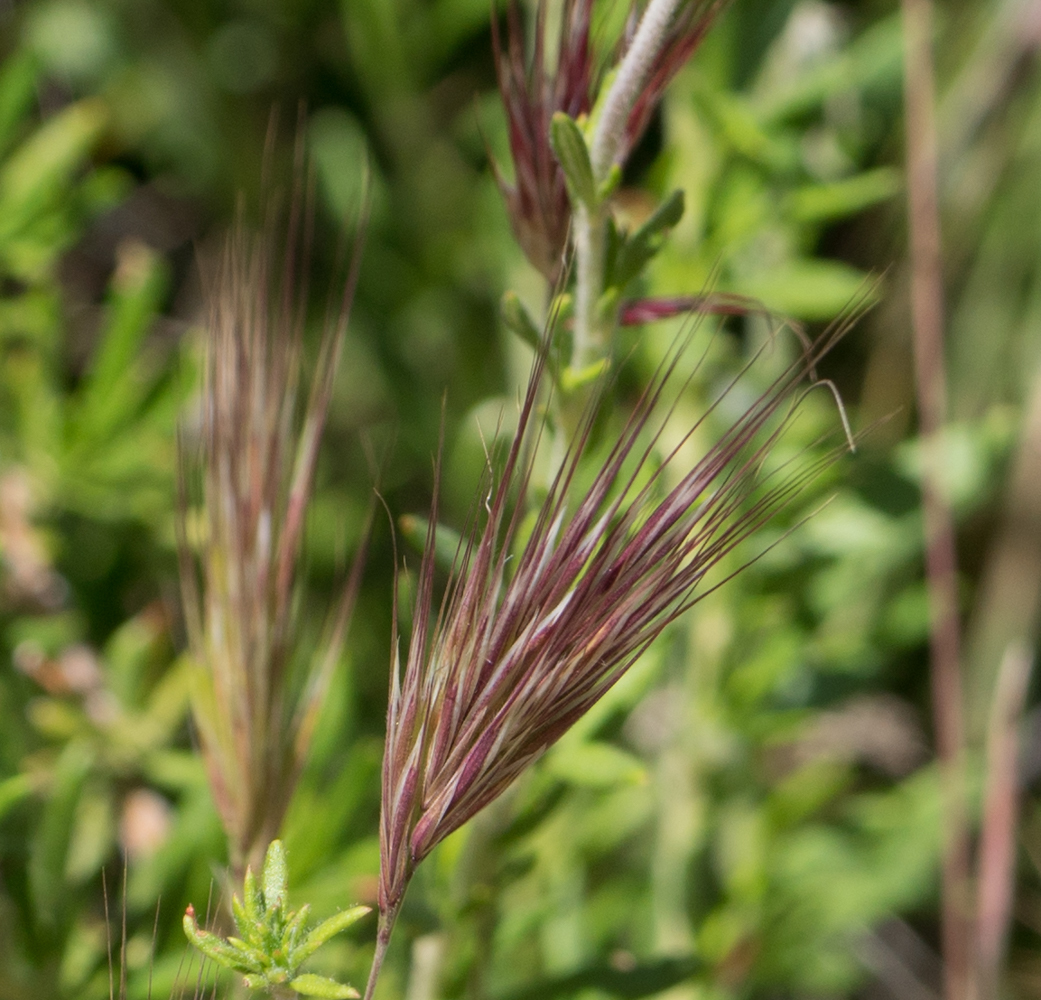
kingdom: Plantae
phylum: Tracheophyta
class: Liliopsida
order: Poales
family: Poaceae
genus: Bromus
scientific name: Bromus rubens
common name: Red brome
